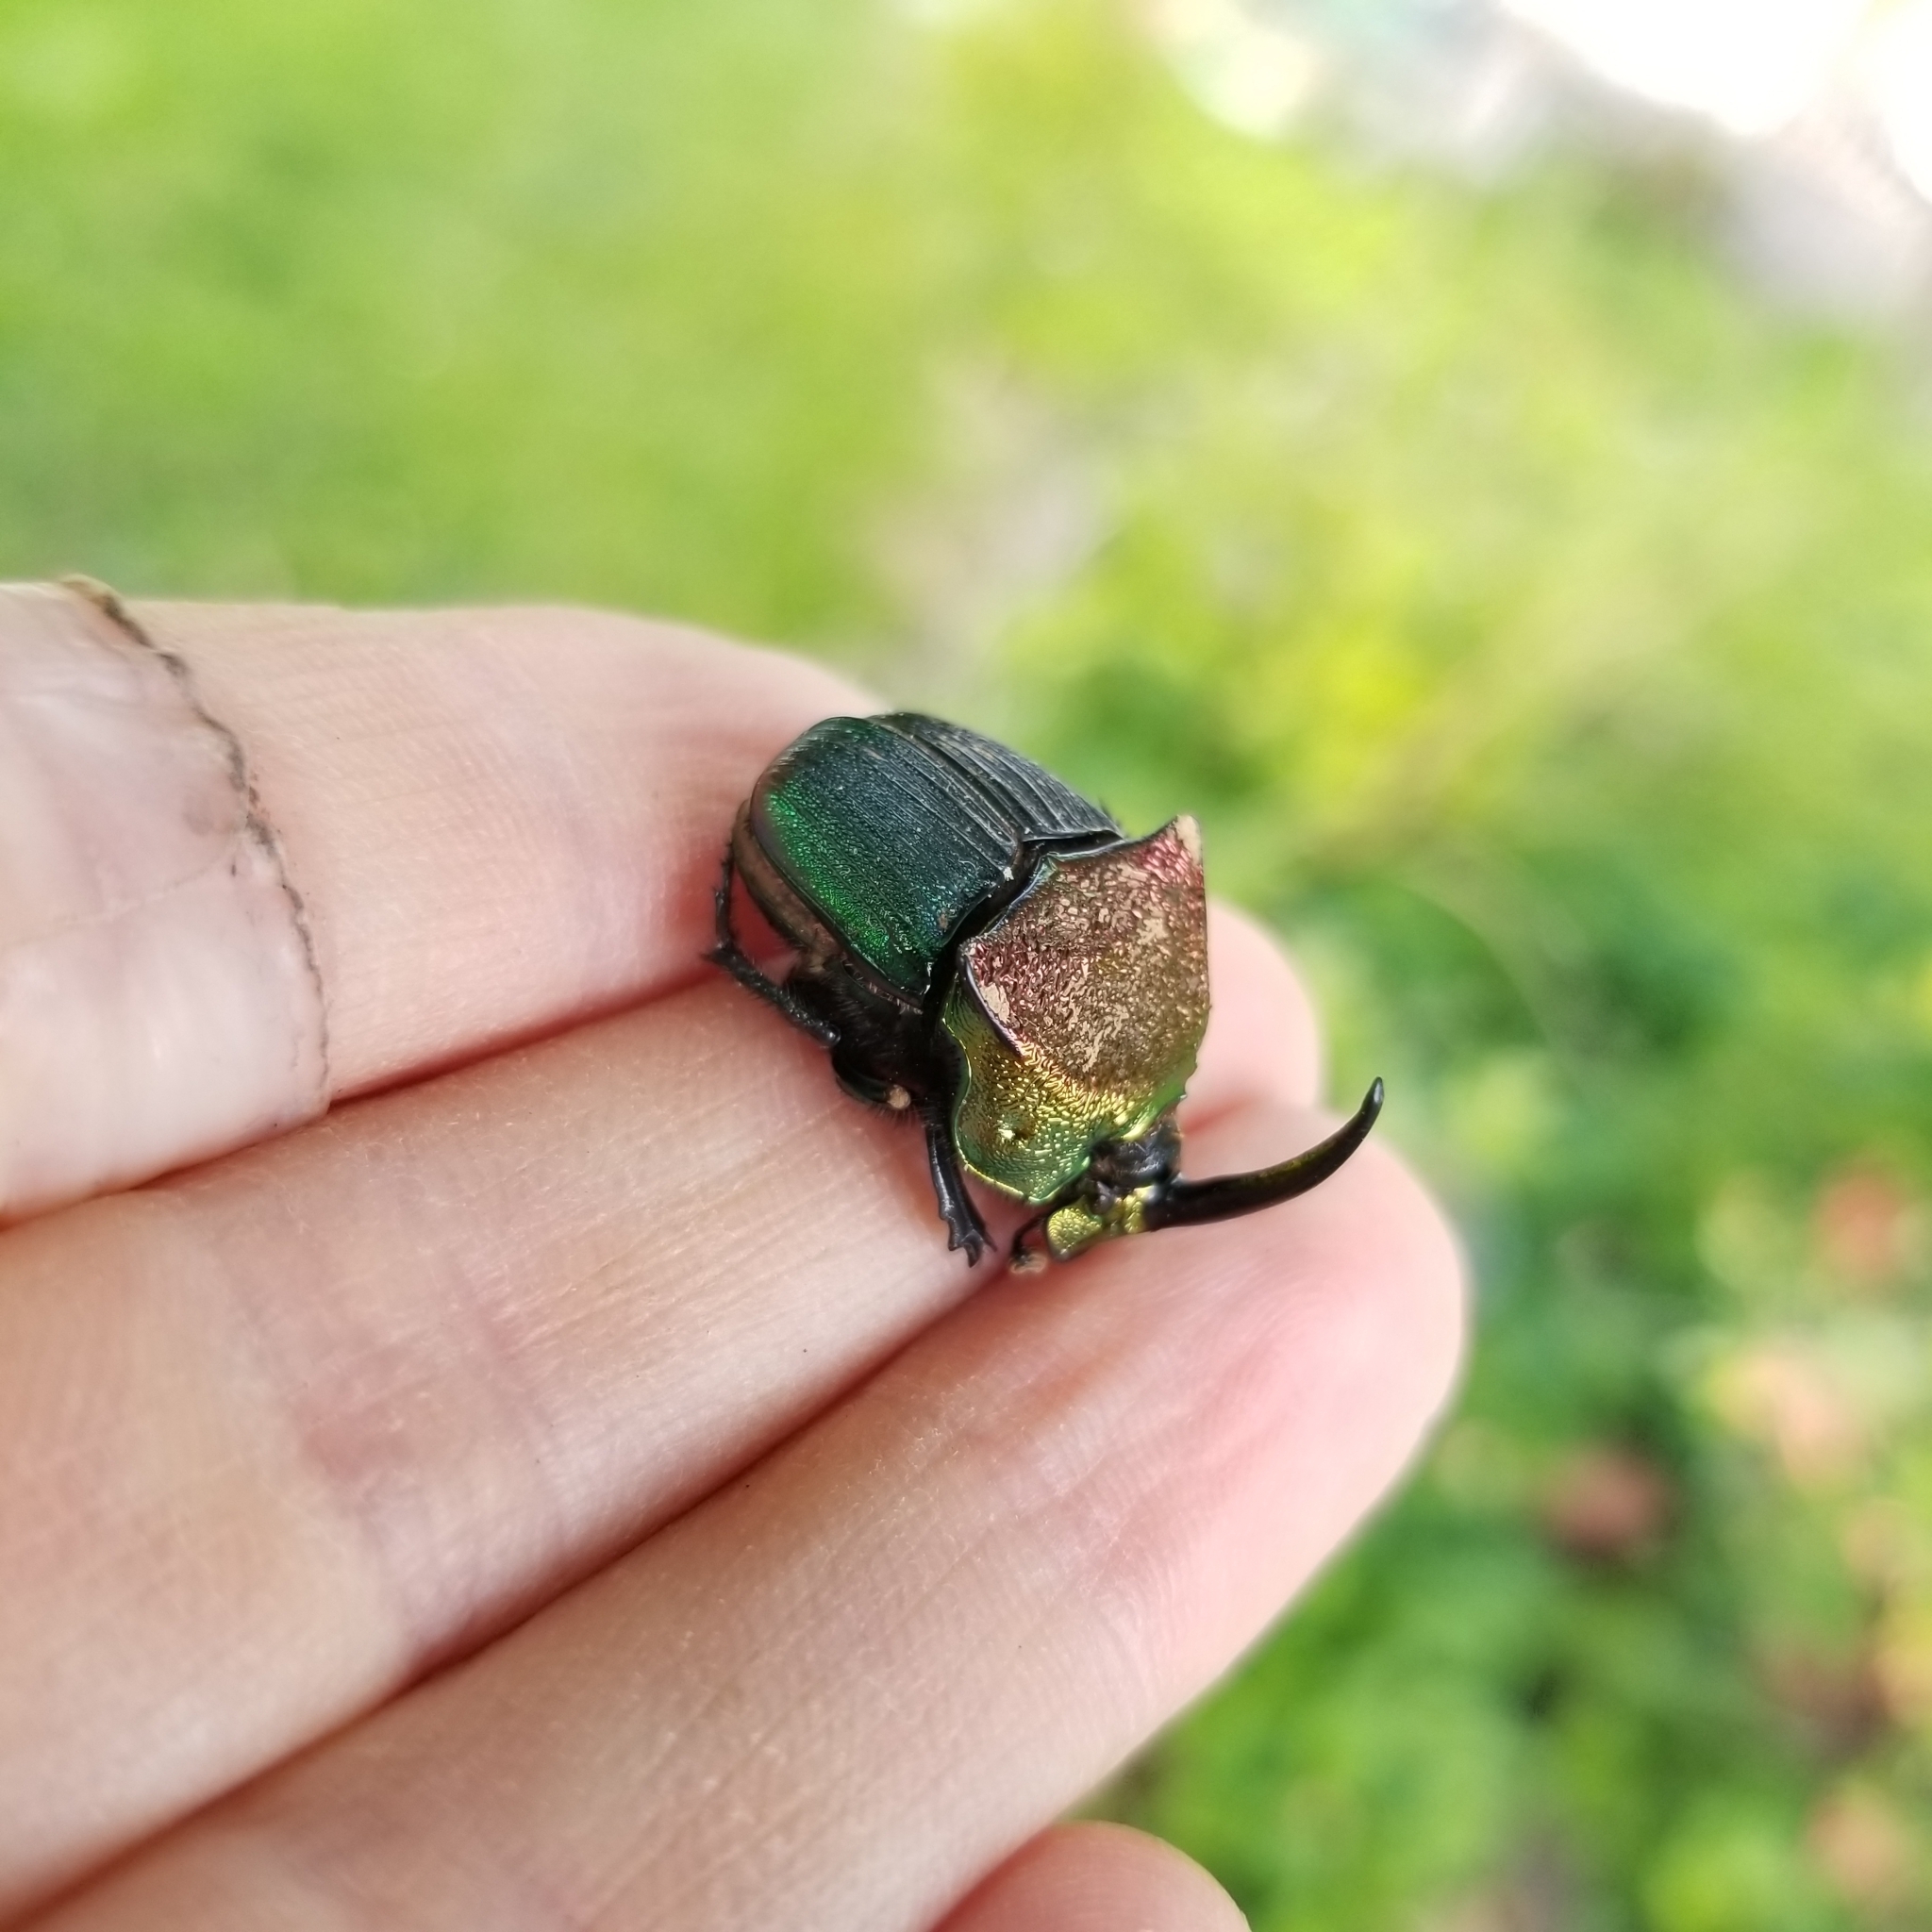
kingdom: Animalia
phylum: Arthropoda
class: Insecta
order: Coleoptera
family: Scarabaeidae
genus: Phanaeus
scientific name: Phanaeus vindex
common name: Rainbow scarab
